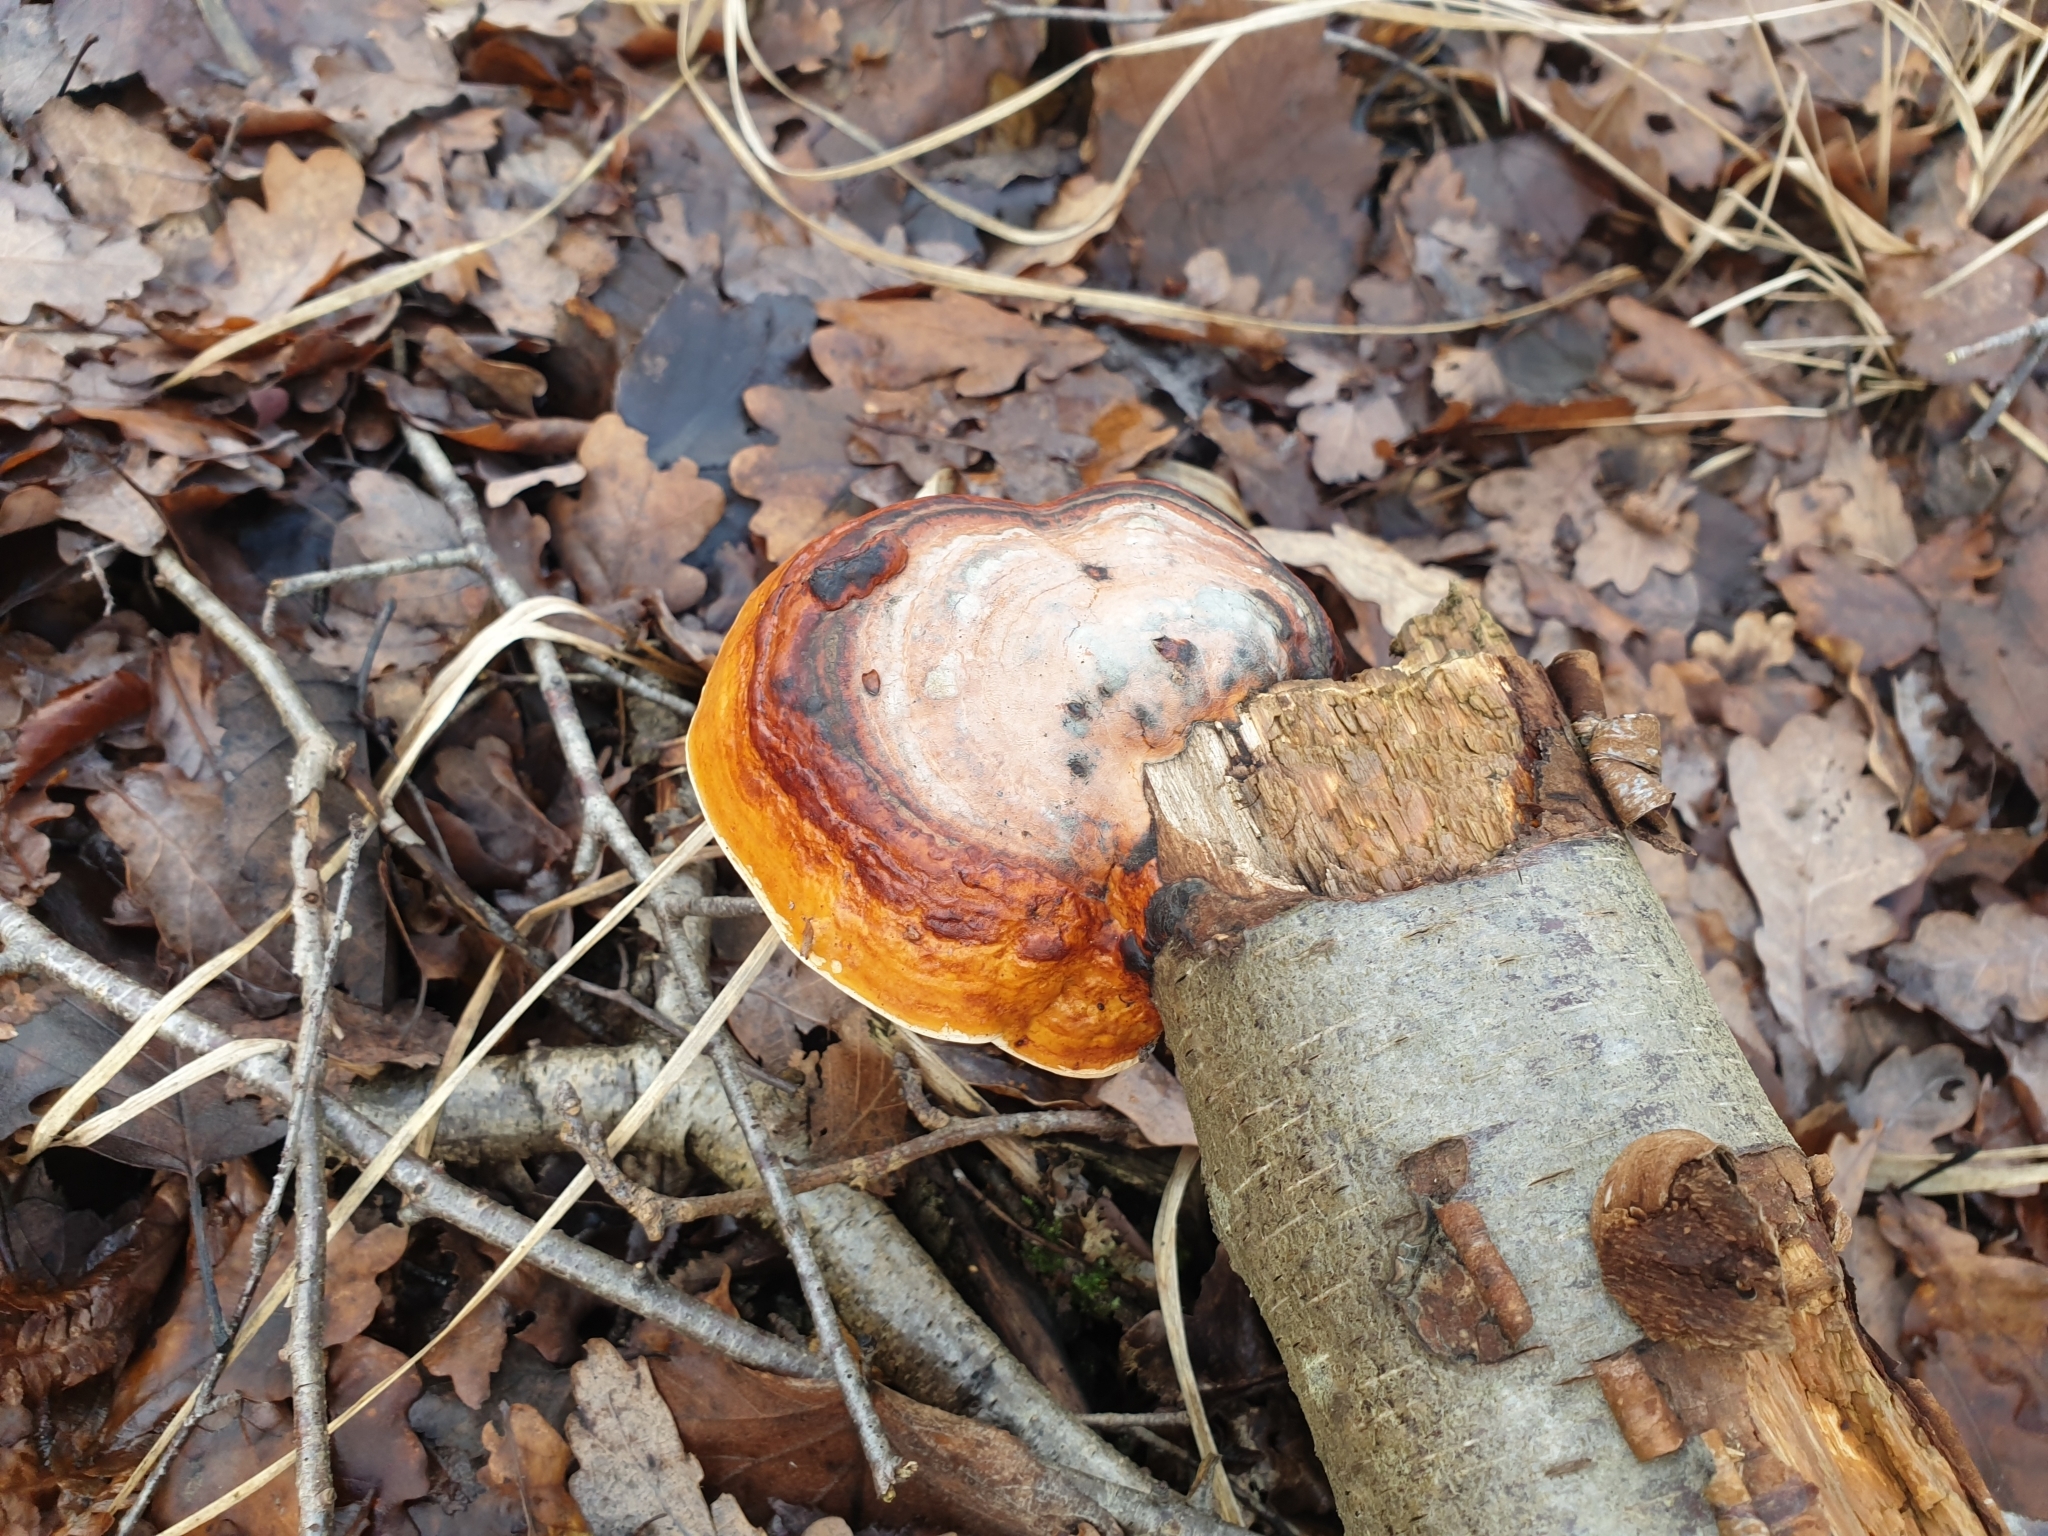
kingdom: Fungi
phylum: Basidiomycota
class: Agaricomycetes
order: Polyporales
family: Fomitopsidaceae
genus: Fomitopsis
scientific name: Fomitopsis pinicola
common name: Red-belted bracket
